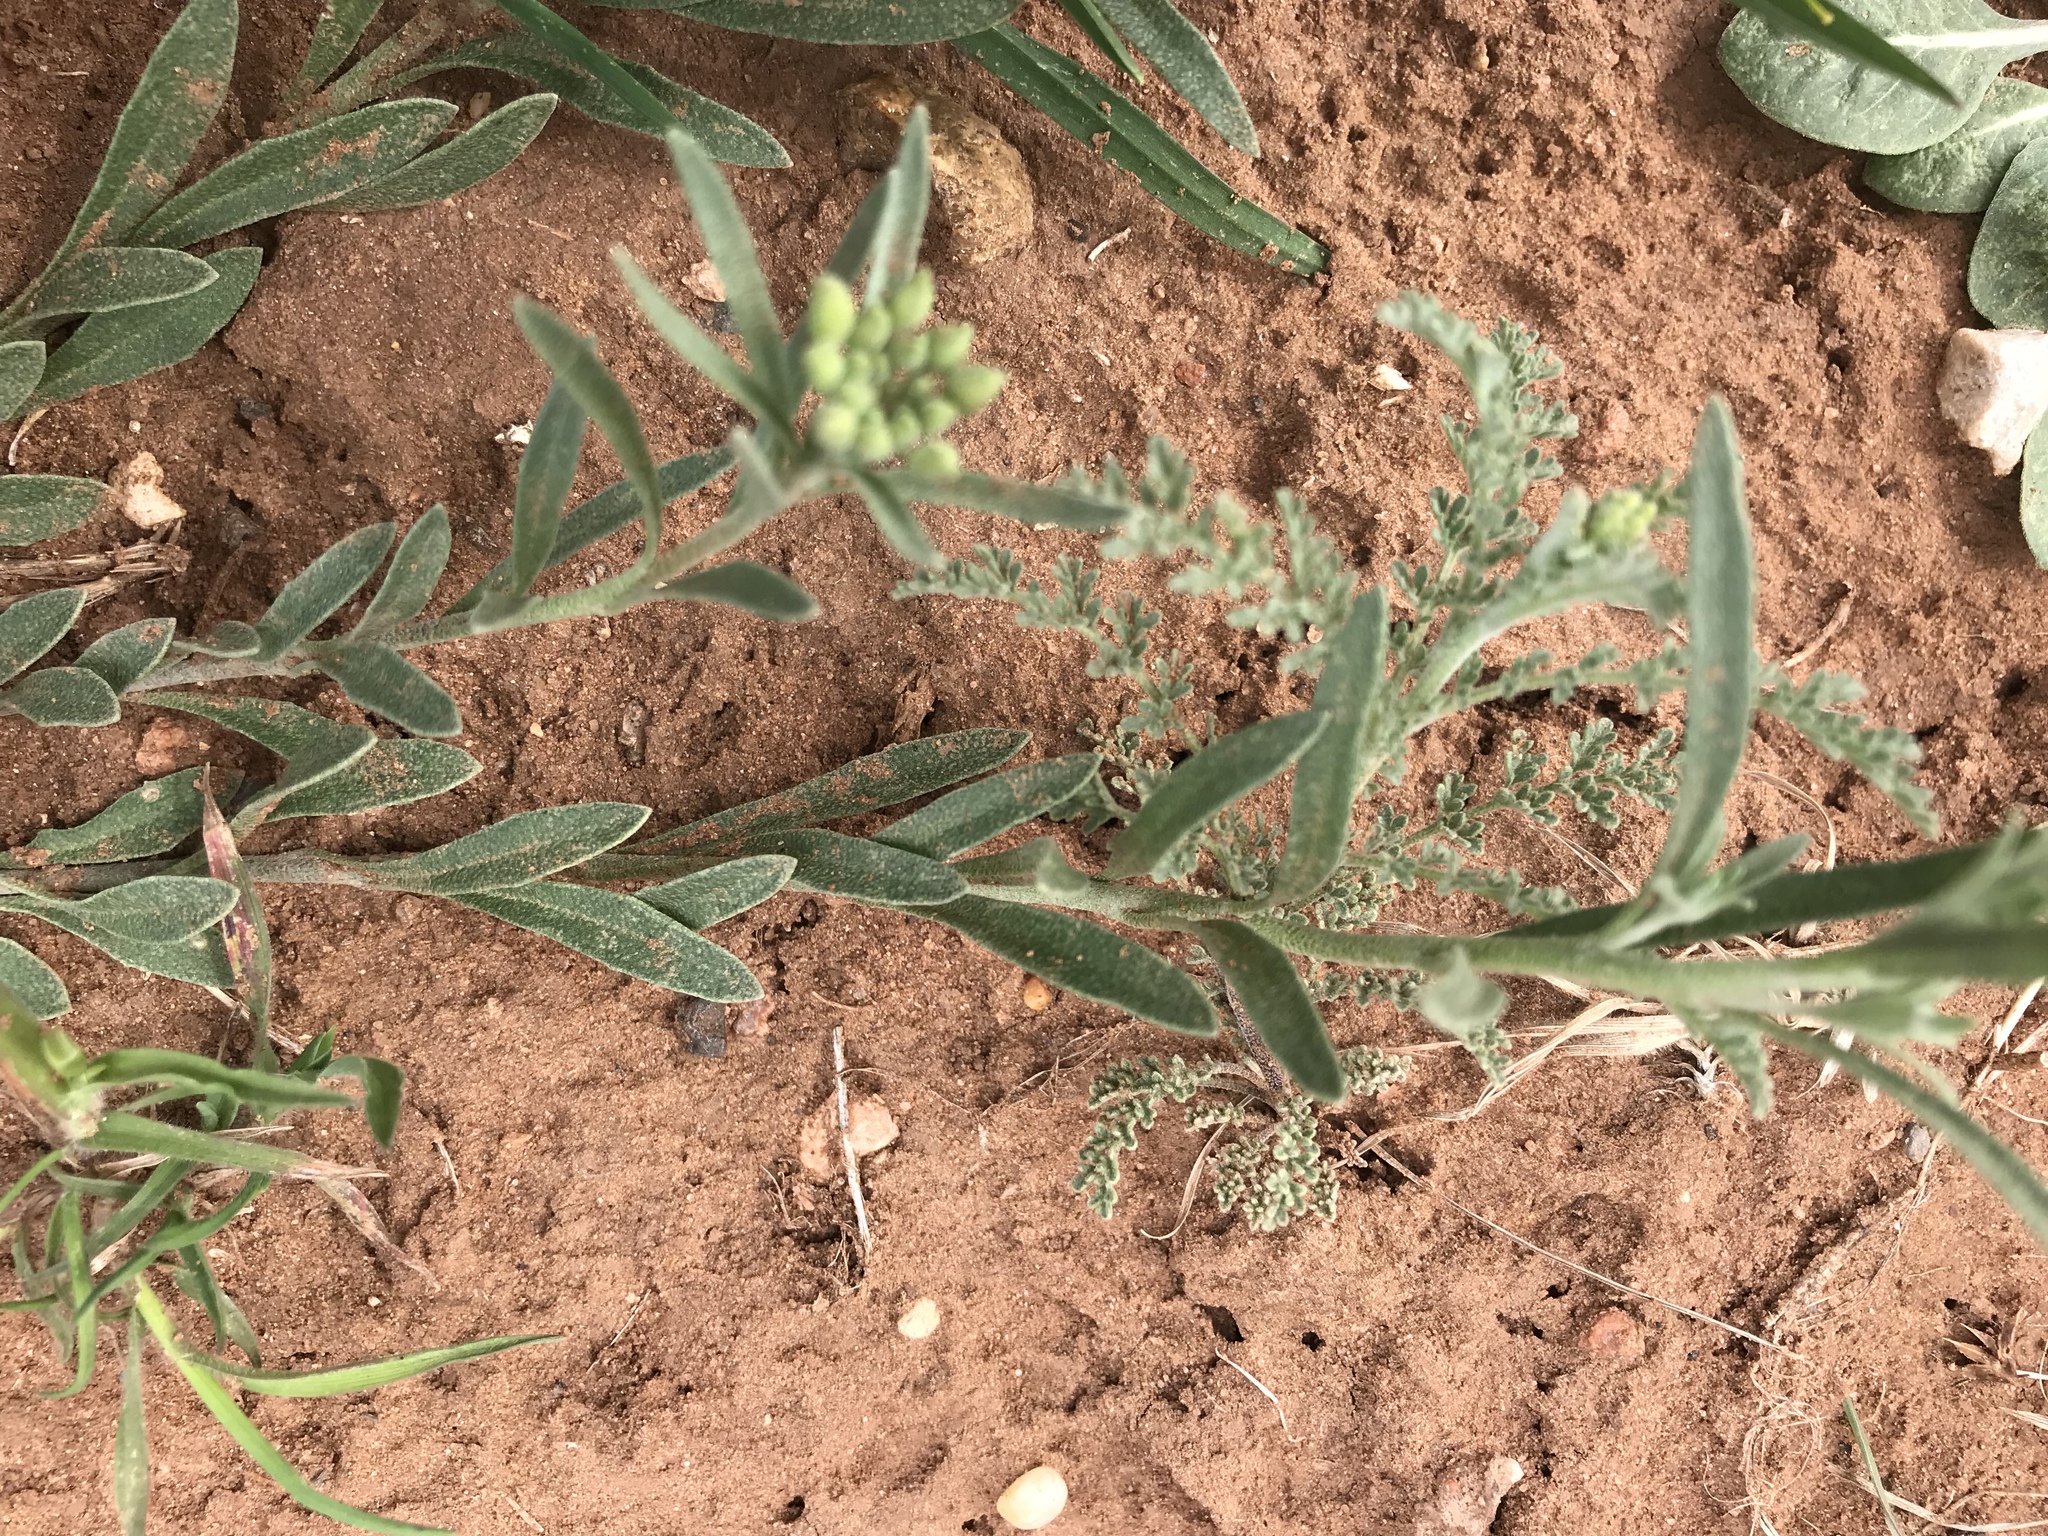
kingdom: Plantae
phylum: Tracheophyta
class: Magnoliopsida
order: Brassicales
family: Brassicaceae
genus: Physaria
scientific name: Physaria gordonii
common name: Gordon's bladderpod
